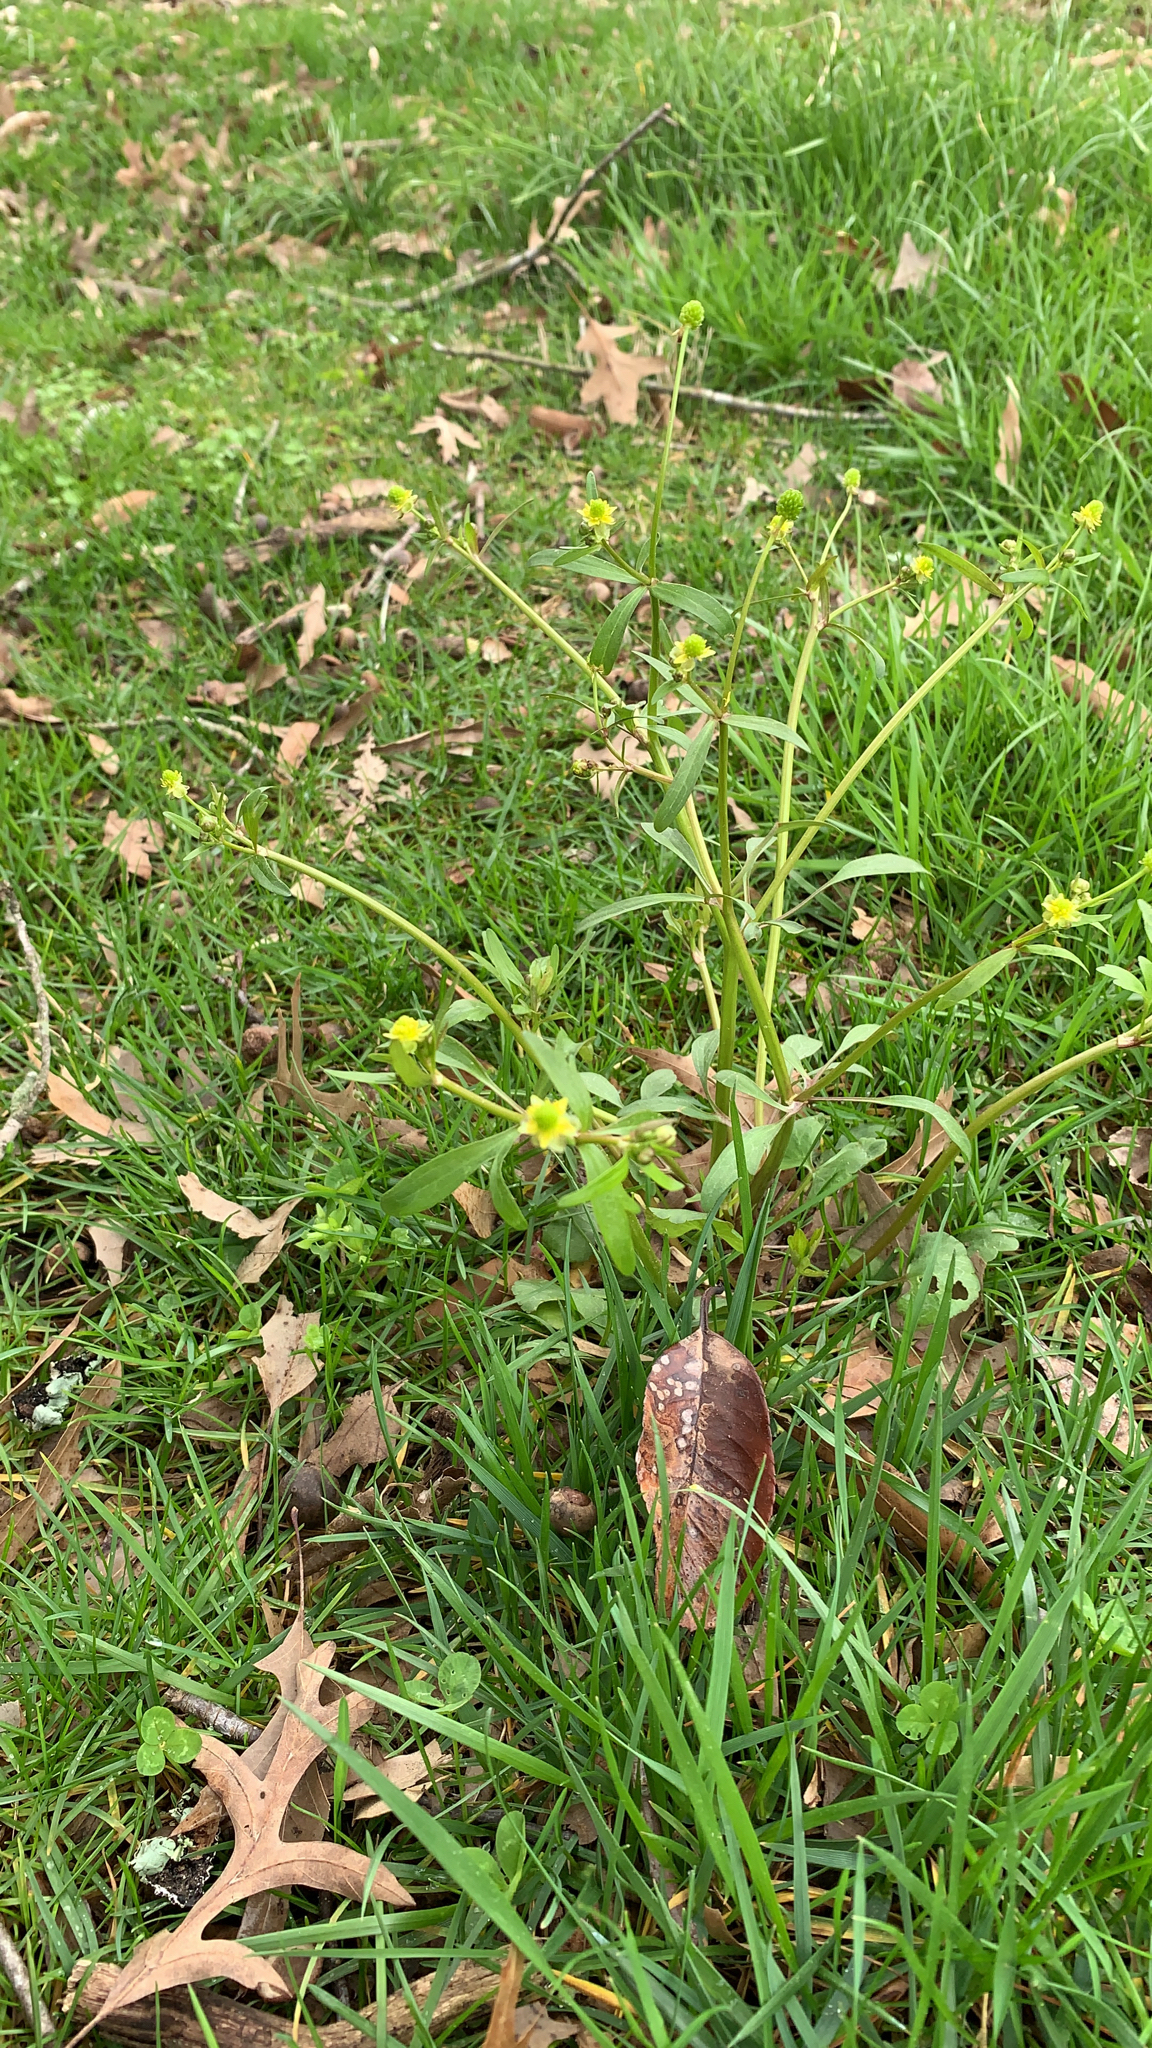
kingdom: Plantae
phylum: Tracheophyta
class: Magnoliopsida
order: Ranunculales
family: Ranunculaceae
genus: Ranunculus
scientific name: Ranunculus abortivus
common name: Early wood buttercup
